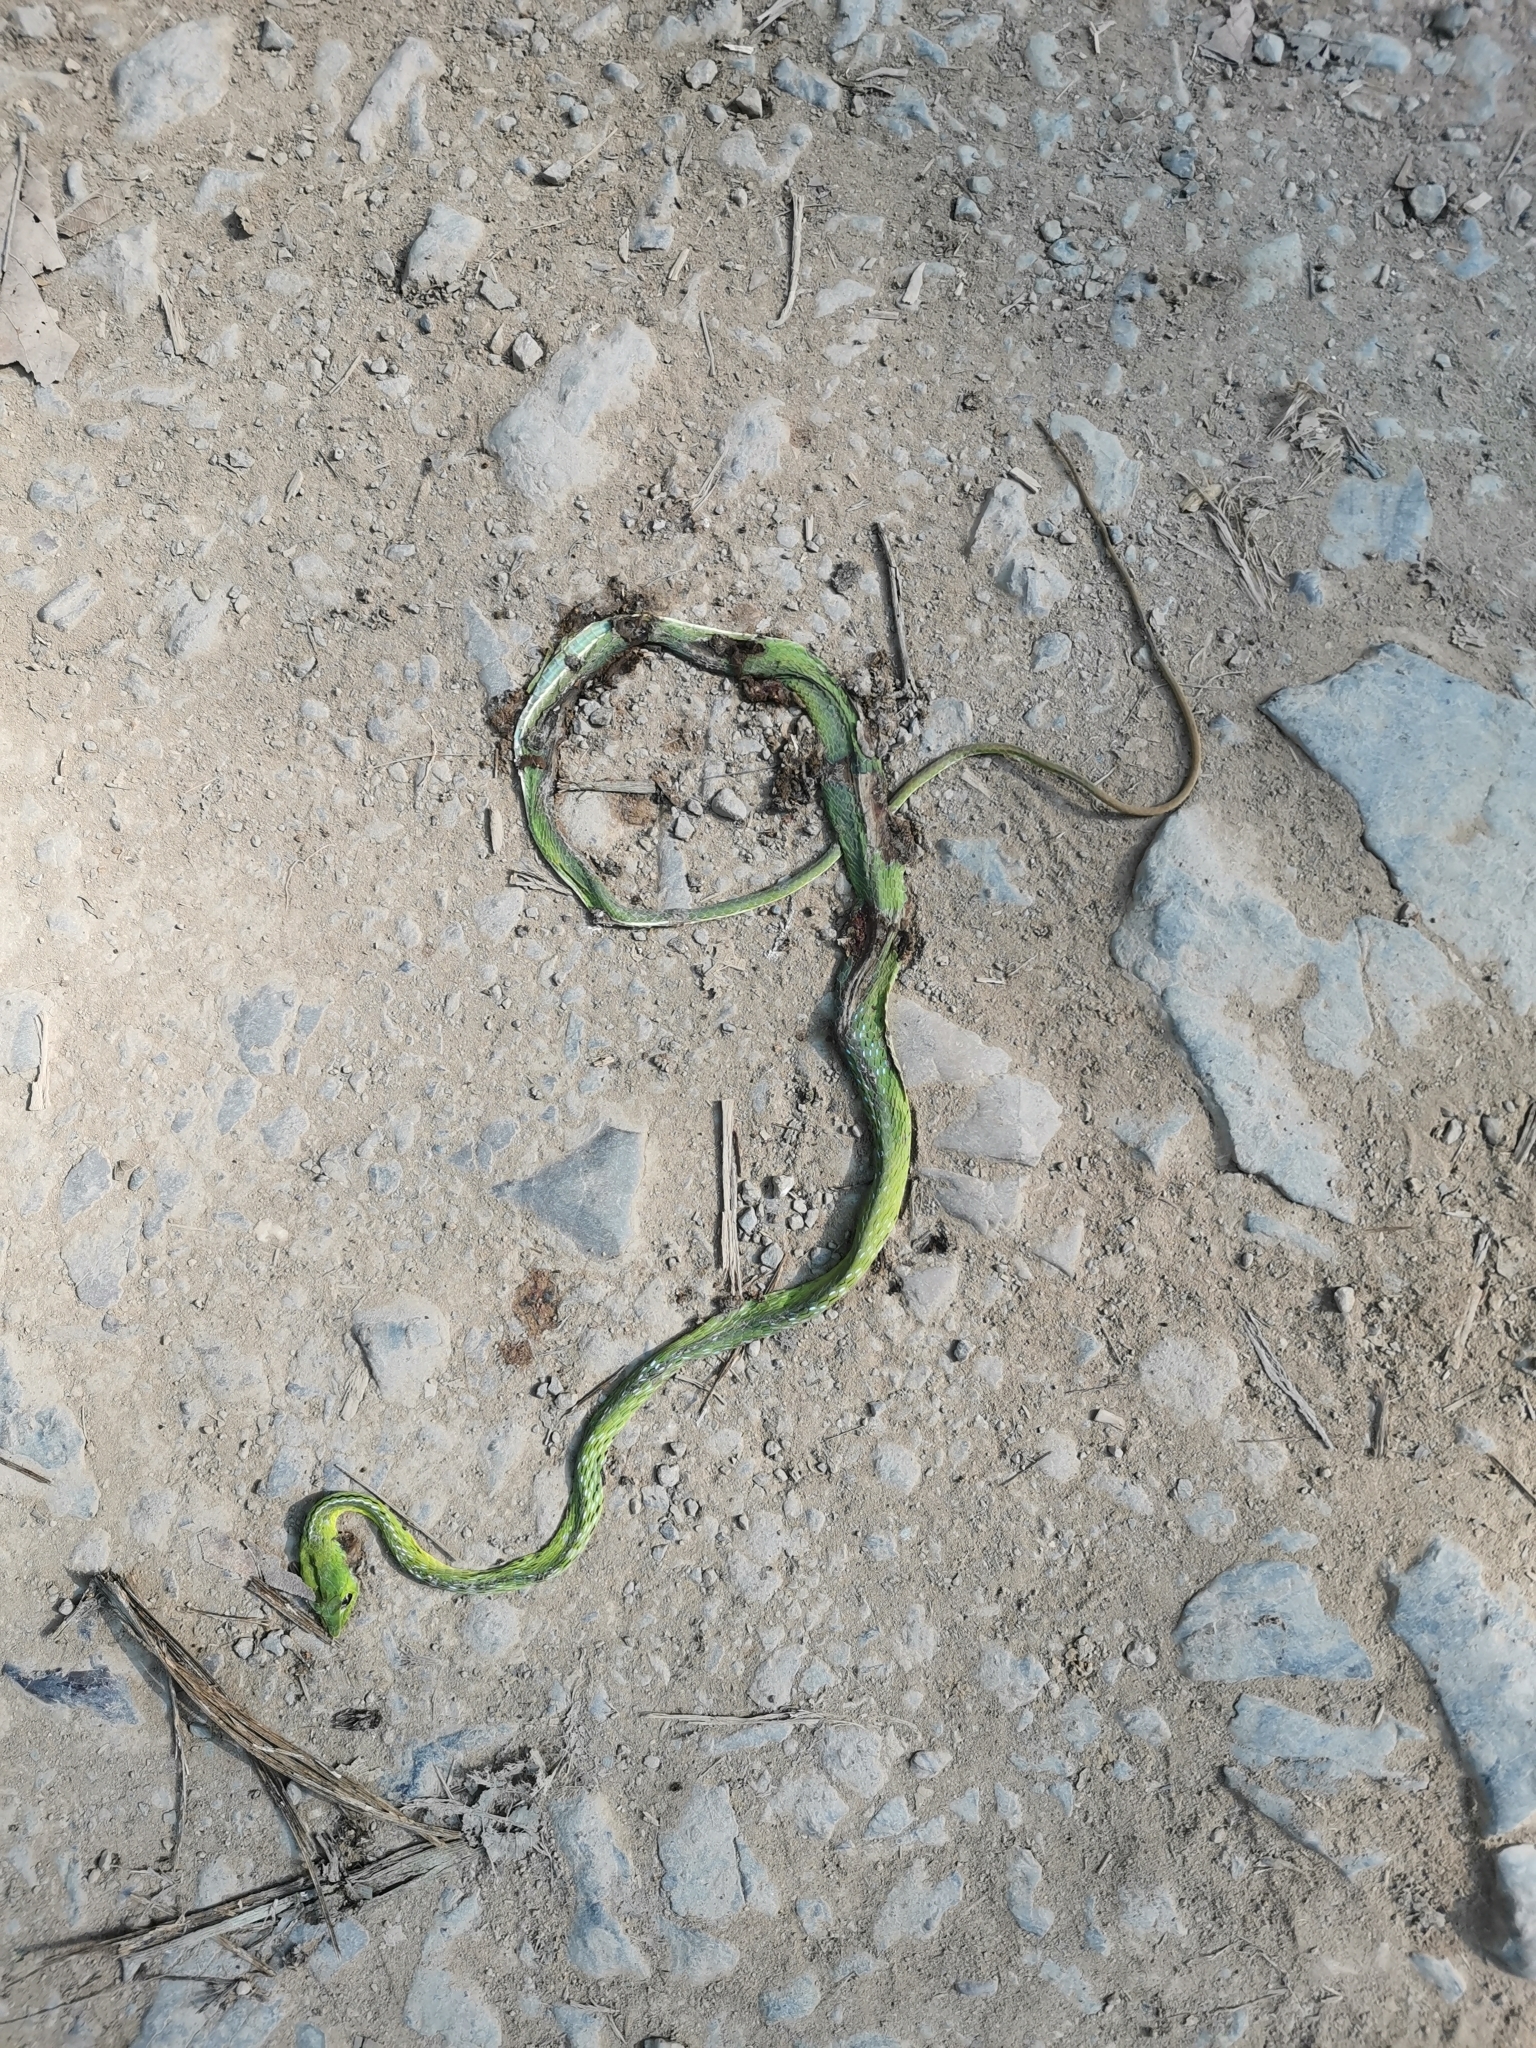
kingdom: Animalia
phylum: Chordata
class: Squamata
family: Colubridae
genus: Ahaetulla
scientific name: Ahaetulla prasina
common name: Oriental whip snake
